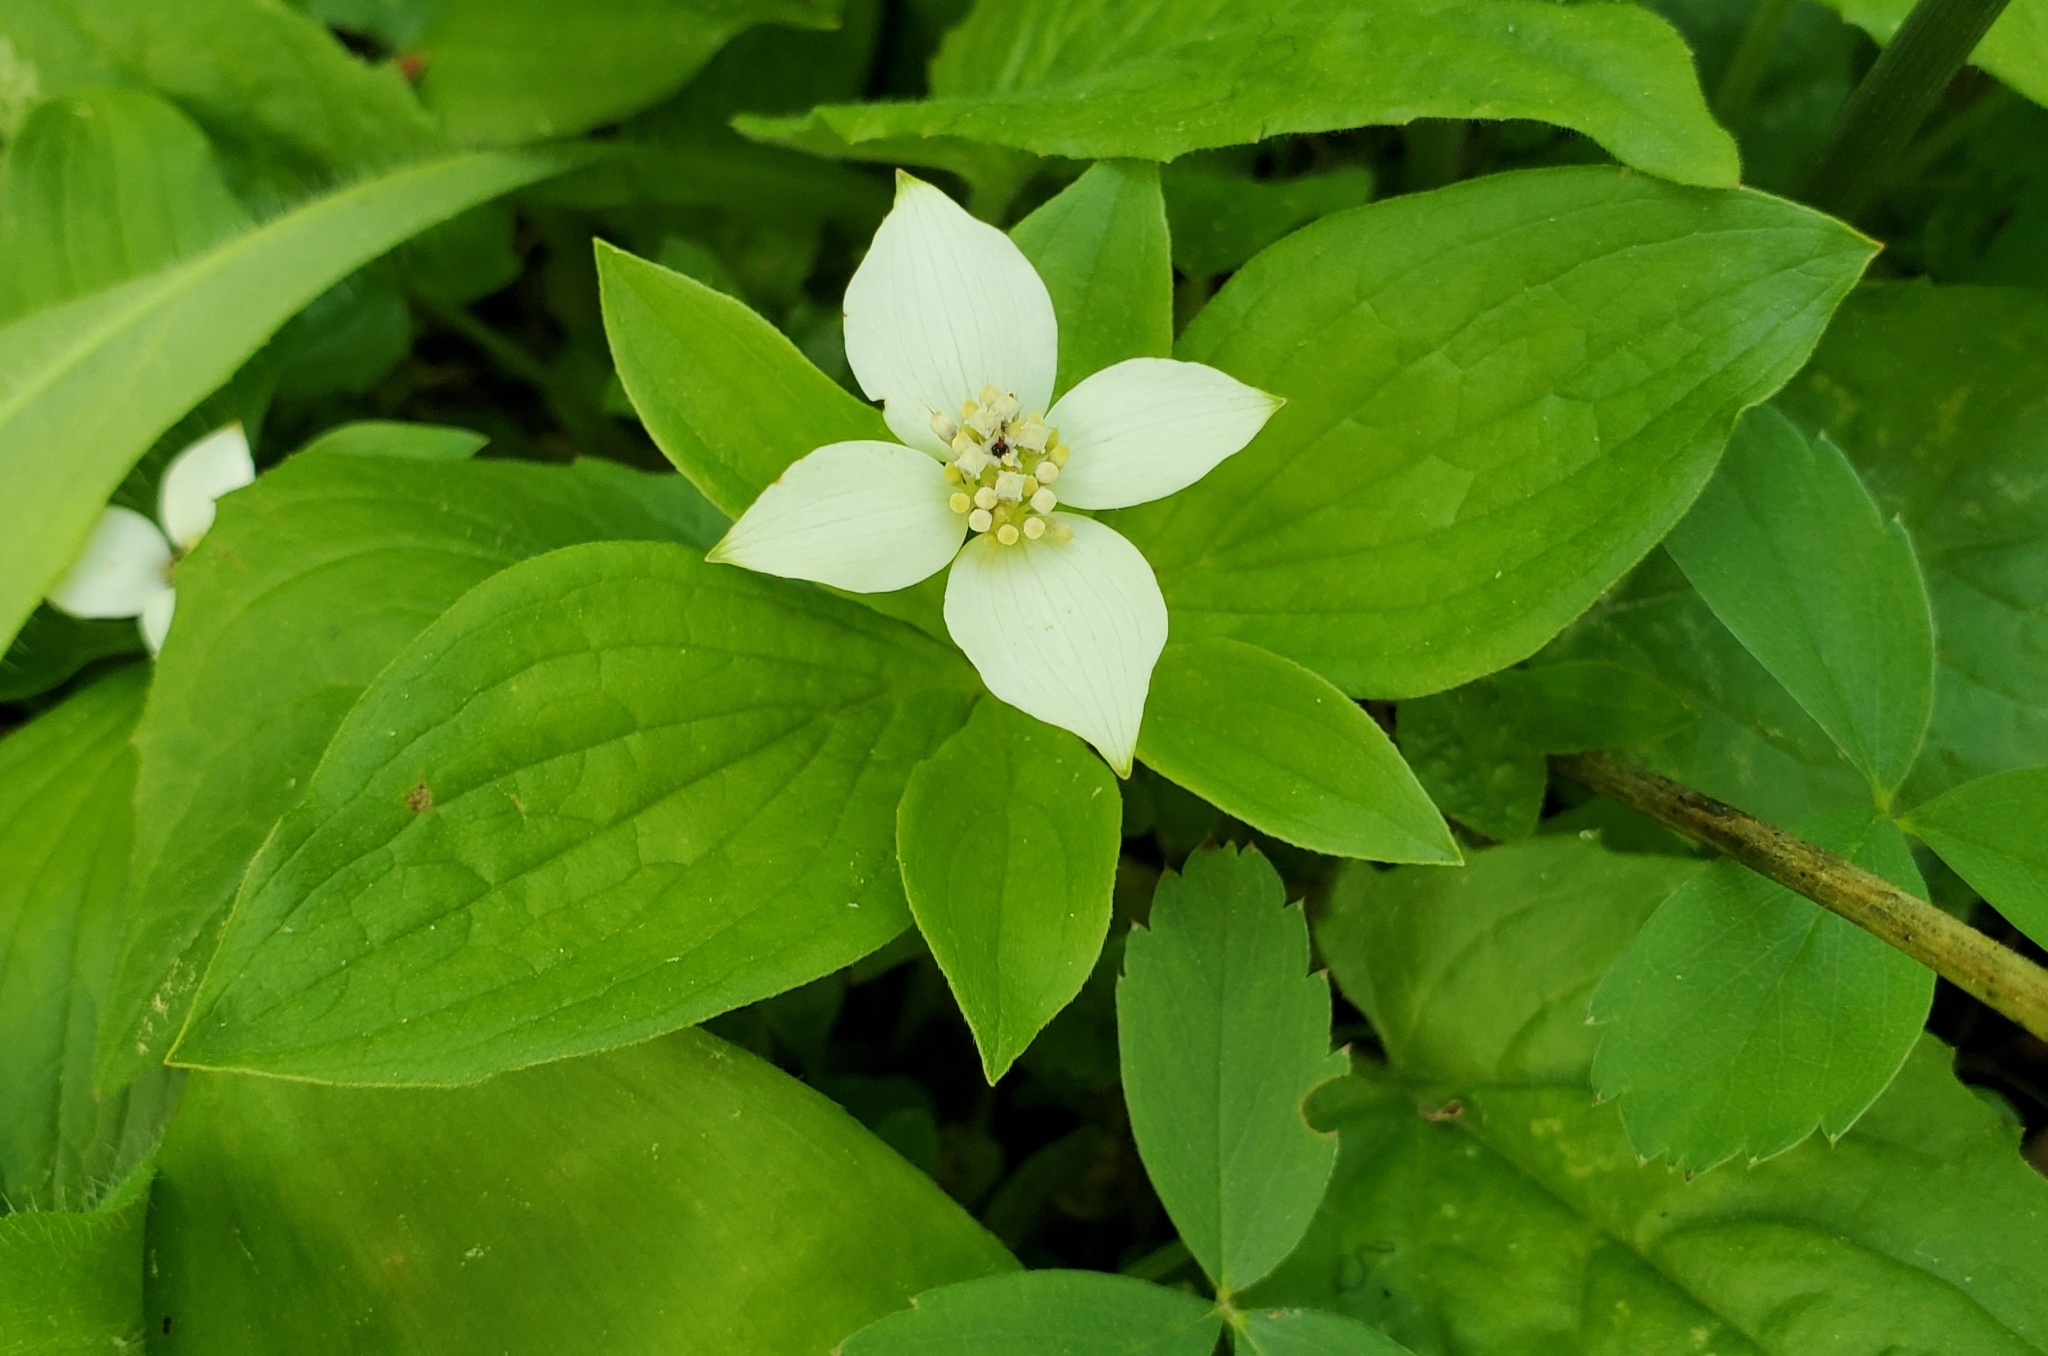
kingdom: Plantae
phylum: Tracheophyta
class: Magnoliopsida
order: Cornales
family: Cornaceae
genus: Cornus
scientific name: Cornus canadensis
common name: Creeping dogwood
